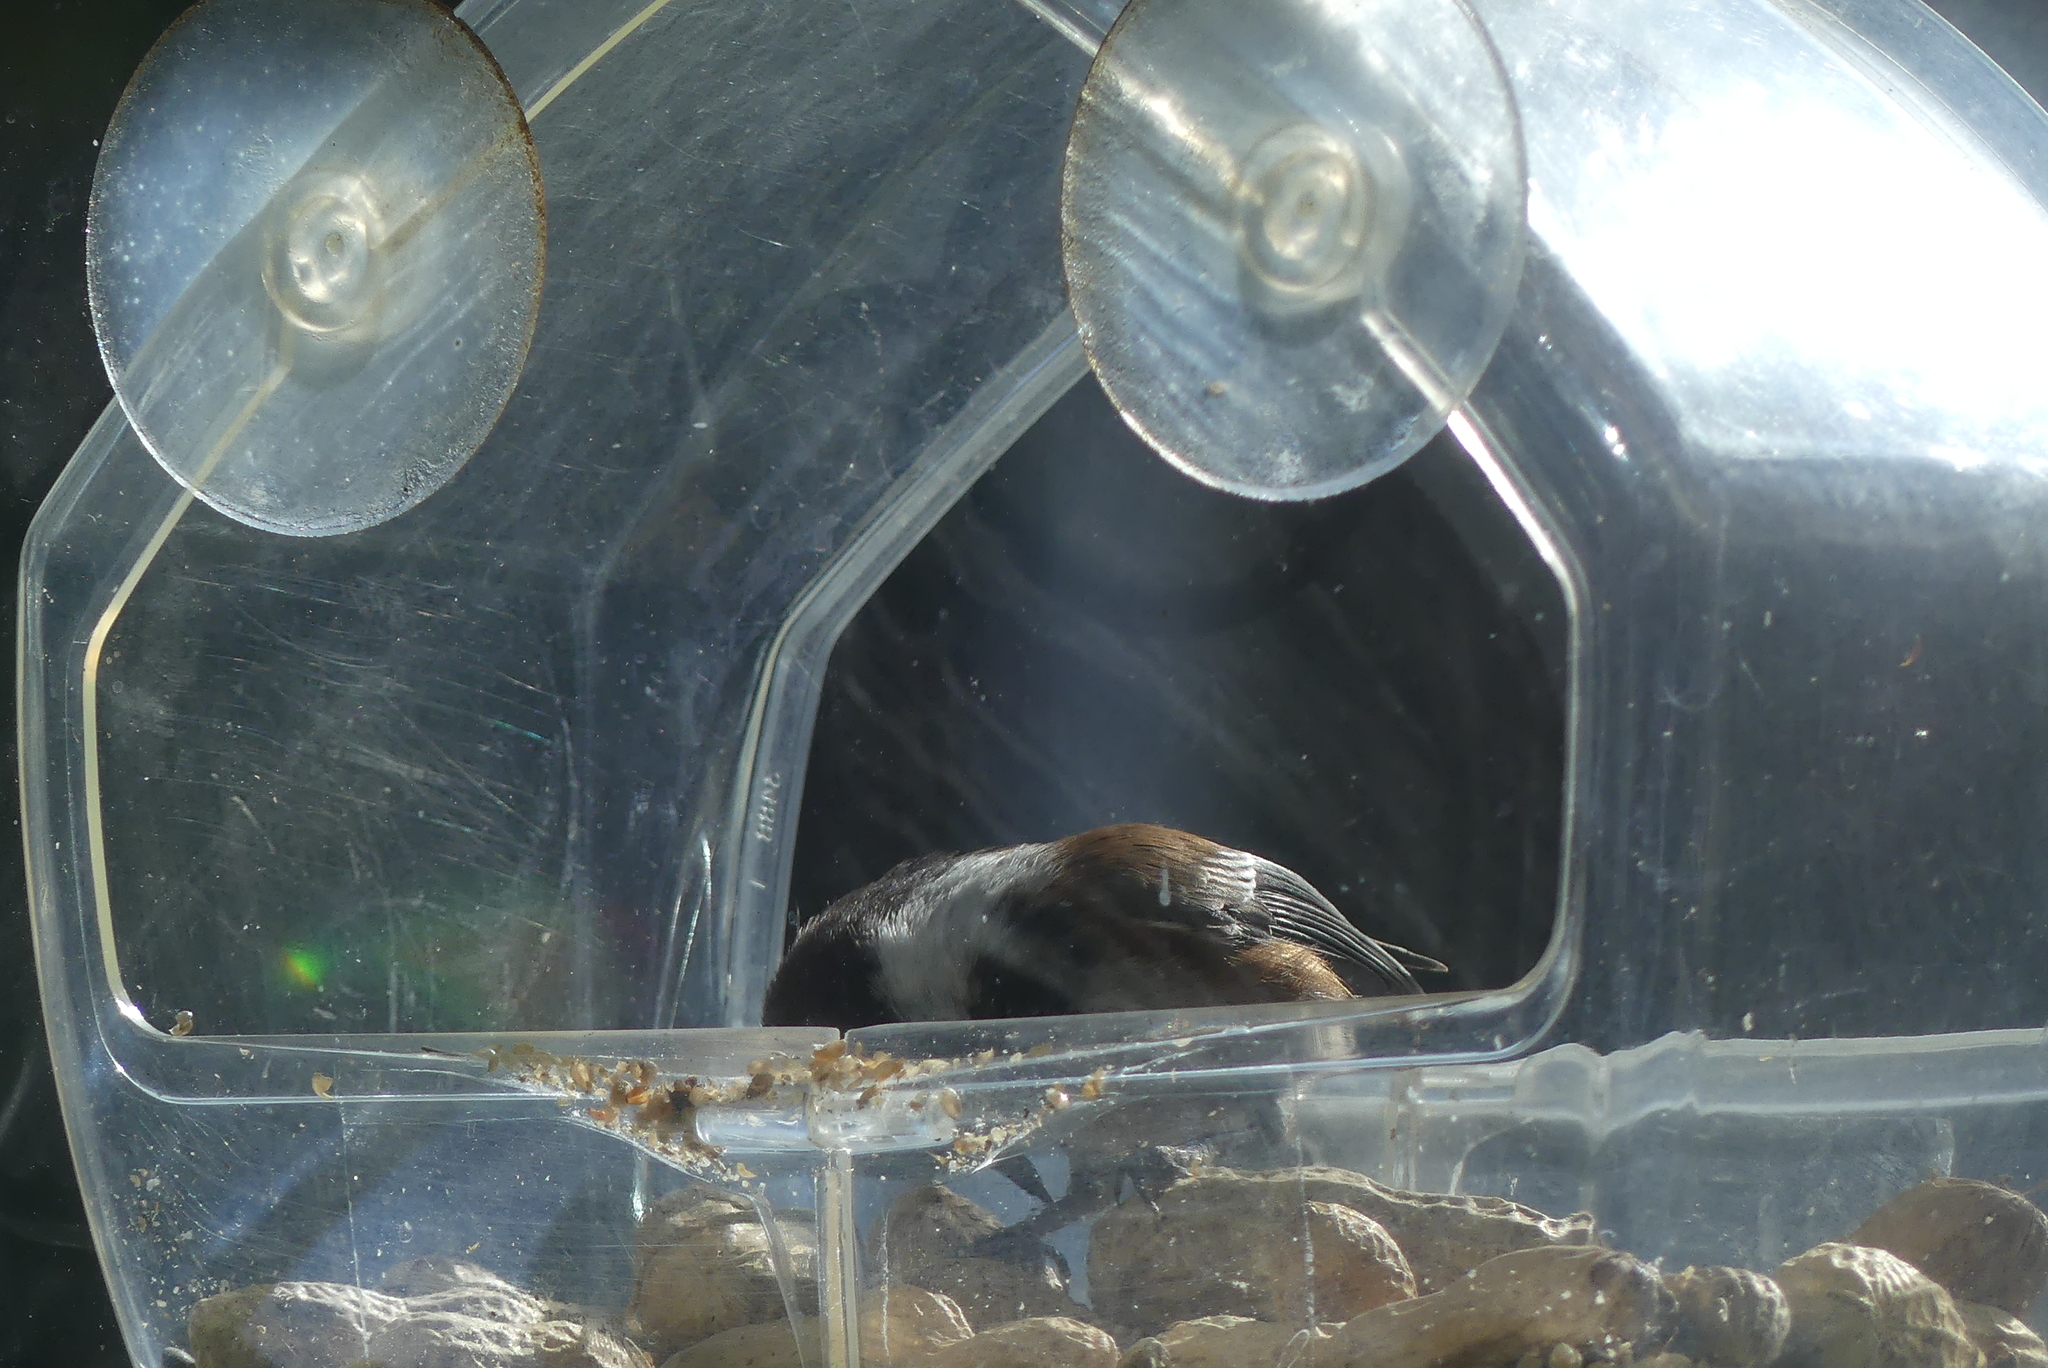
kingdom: Animalia
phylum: Chordata
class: Aves
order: Passeriformes
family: Paridae
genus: Poecile
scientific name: Poecile rufescens
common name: Chestnut-backed chickadee
